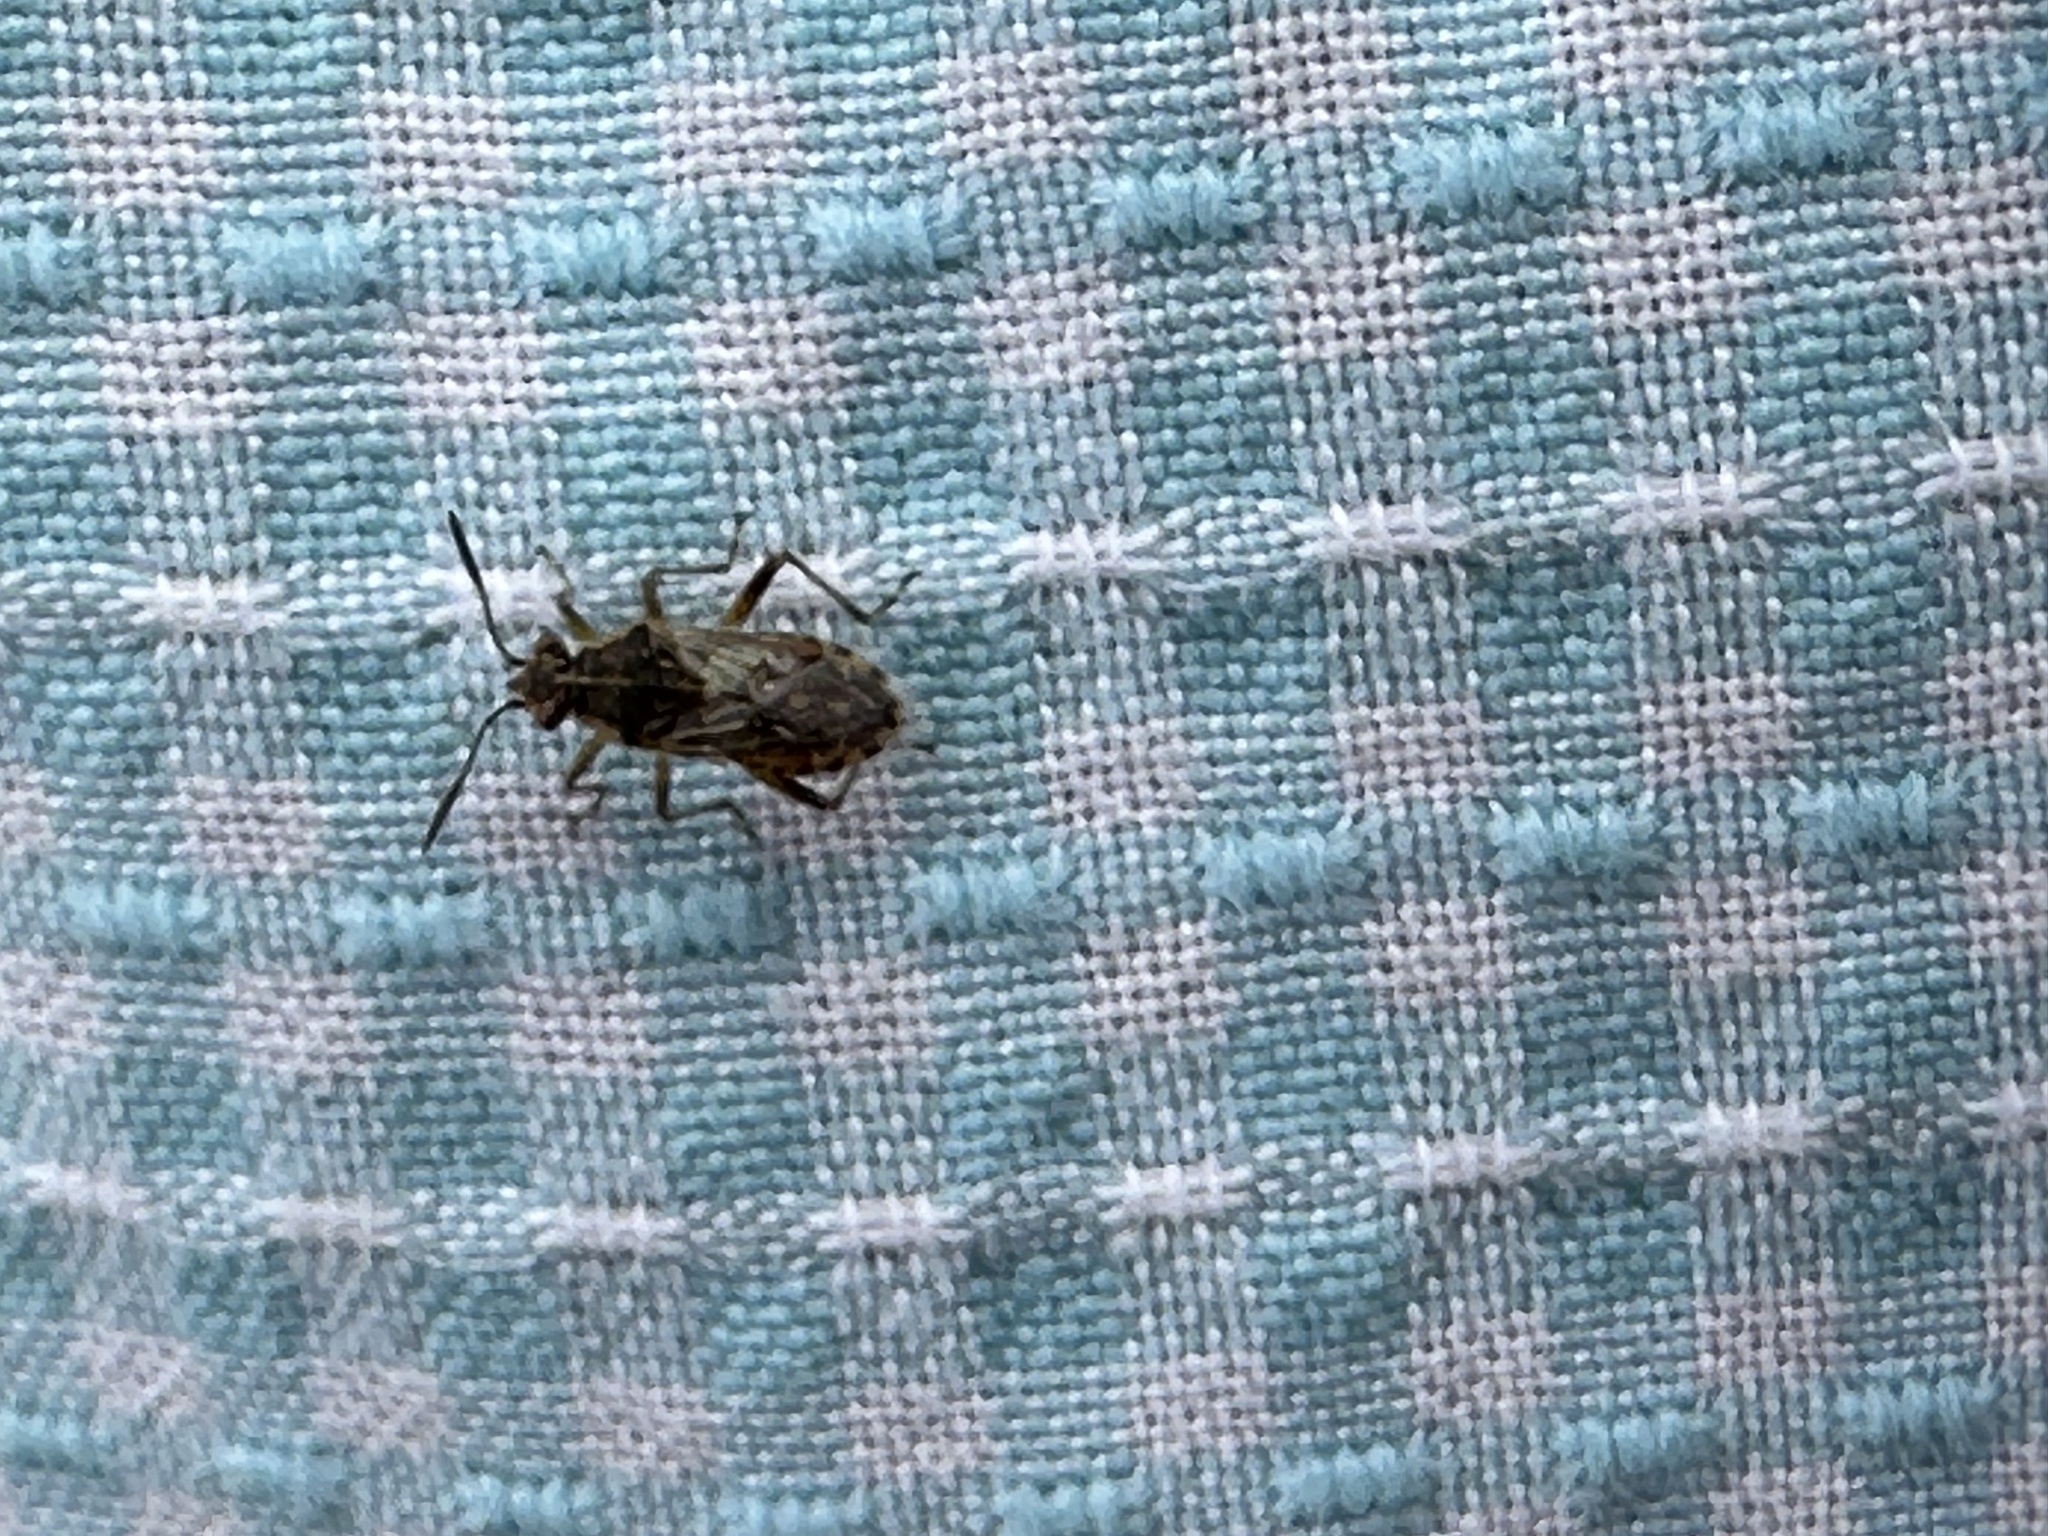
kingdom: Animalia
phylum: Arthropoda
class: Insecta
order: Hemiptera
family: Rhopalidae
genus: Liorhyssus
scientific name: Liorhyssus hyalinus
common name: Scentless plant bug
